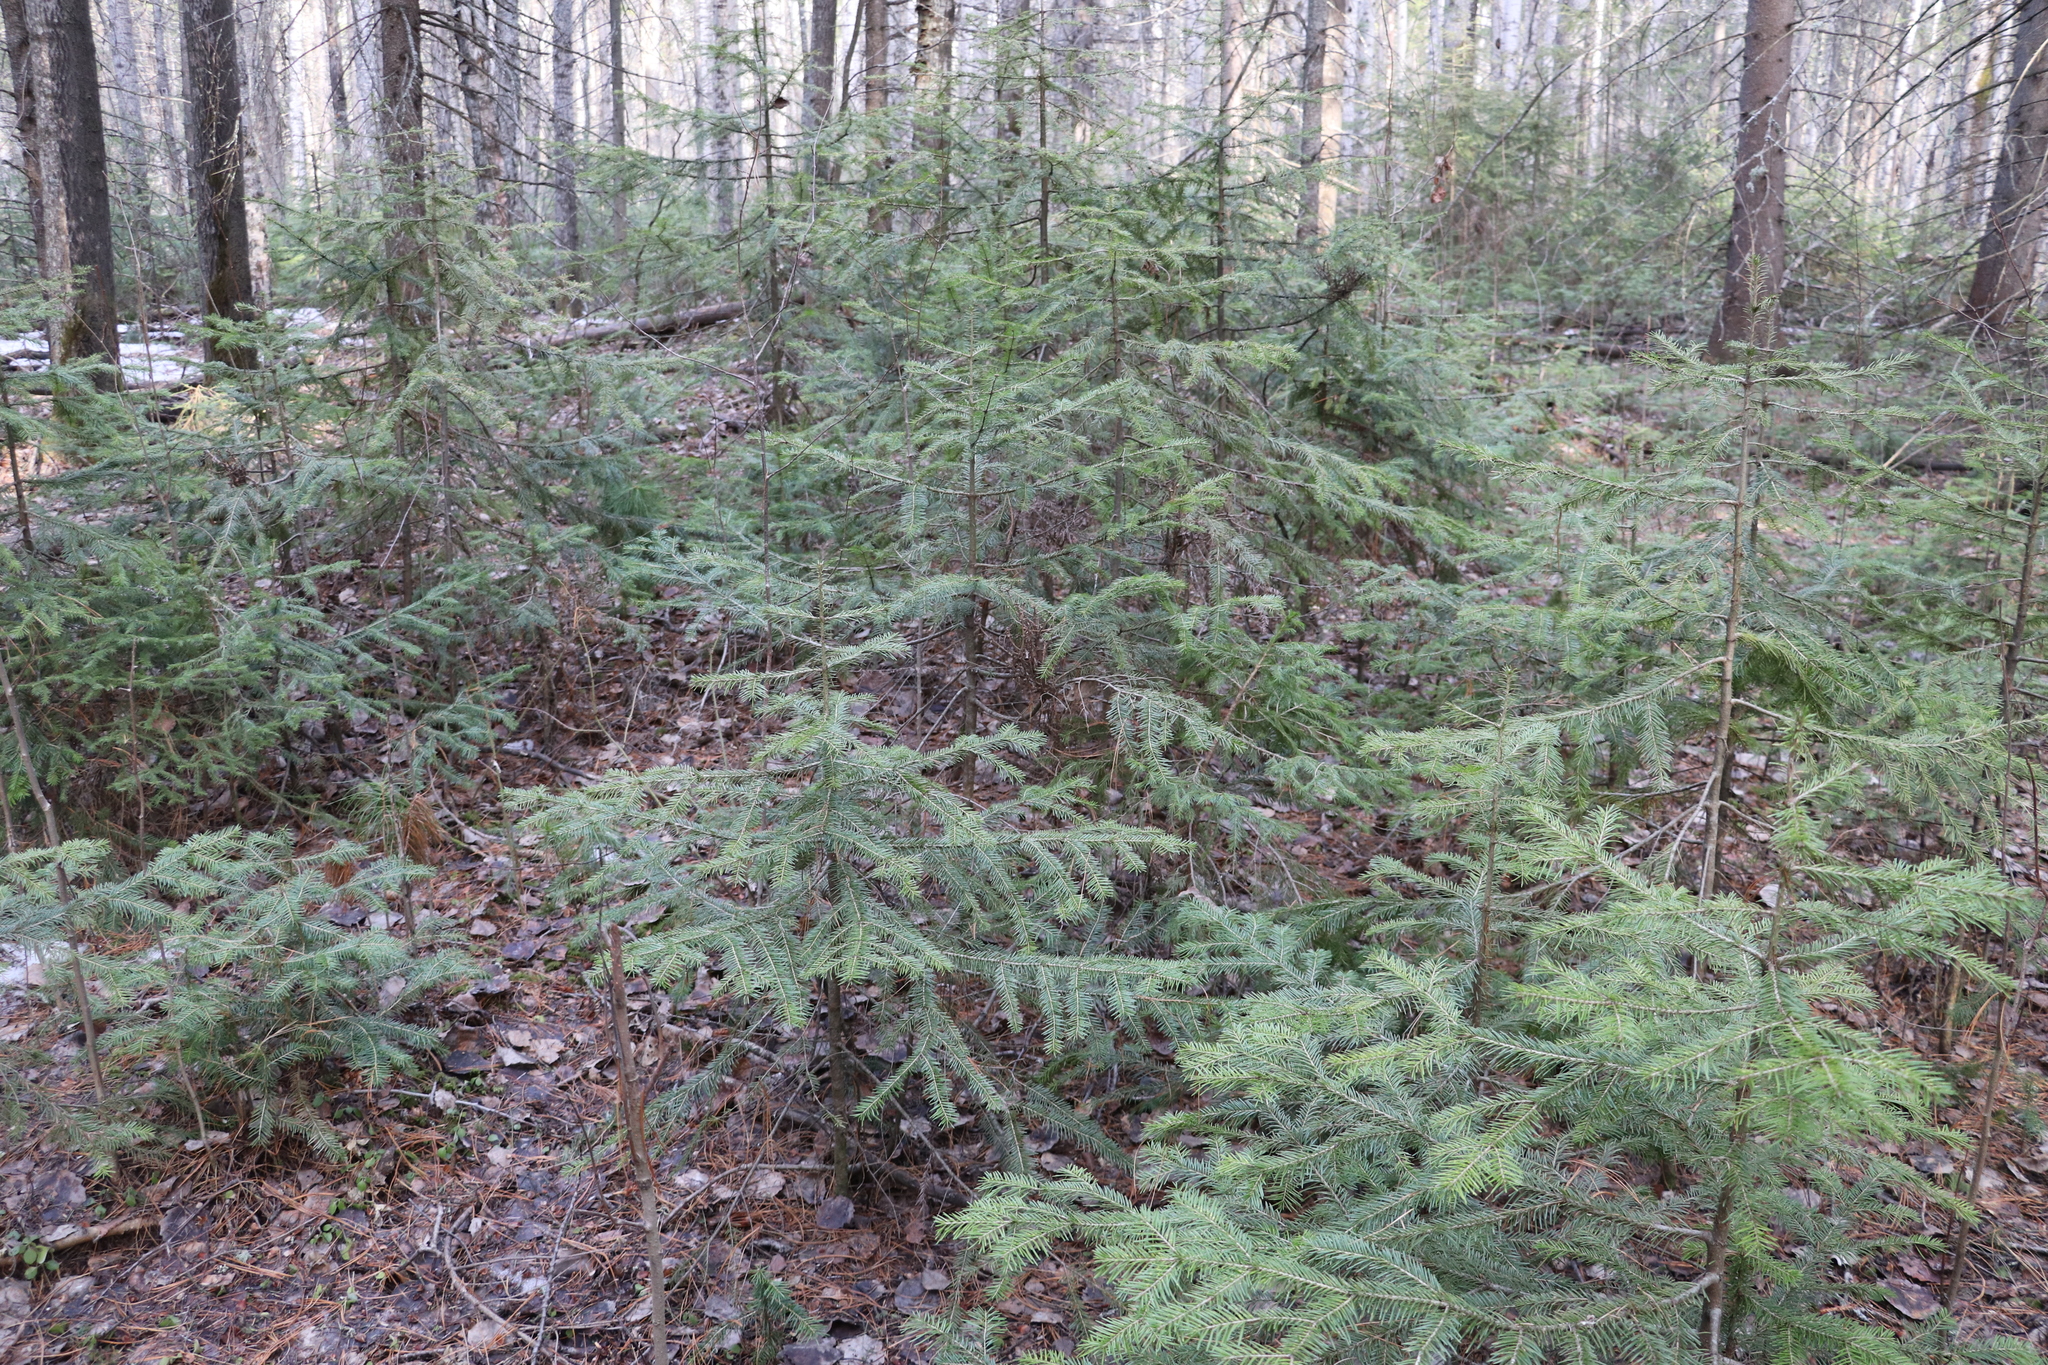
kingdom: Plantae
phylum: Tracheophyta
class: Pinopsida
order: Pinales
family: Pinaceae
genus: Abies
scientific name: Abies sibirica
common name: Siberian fir
